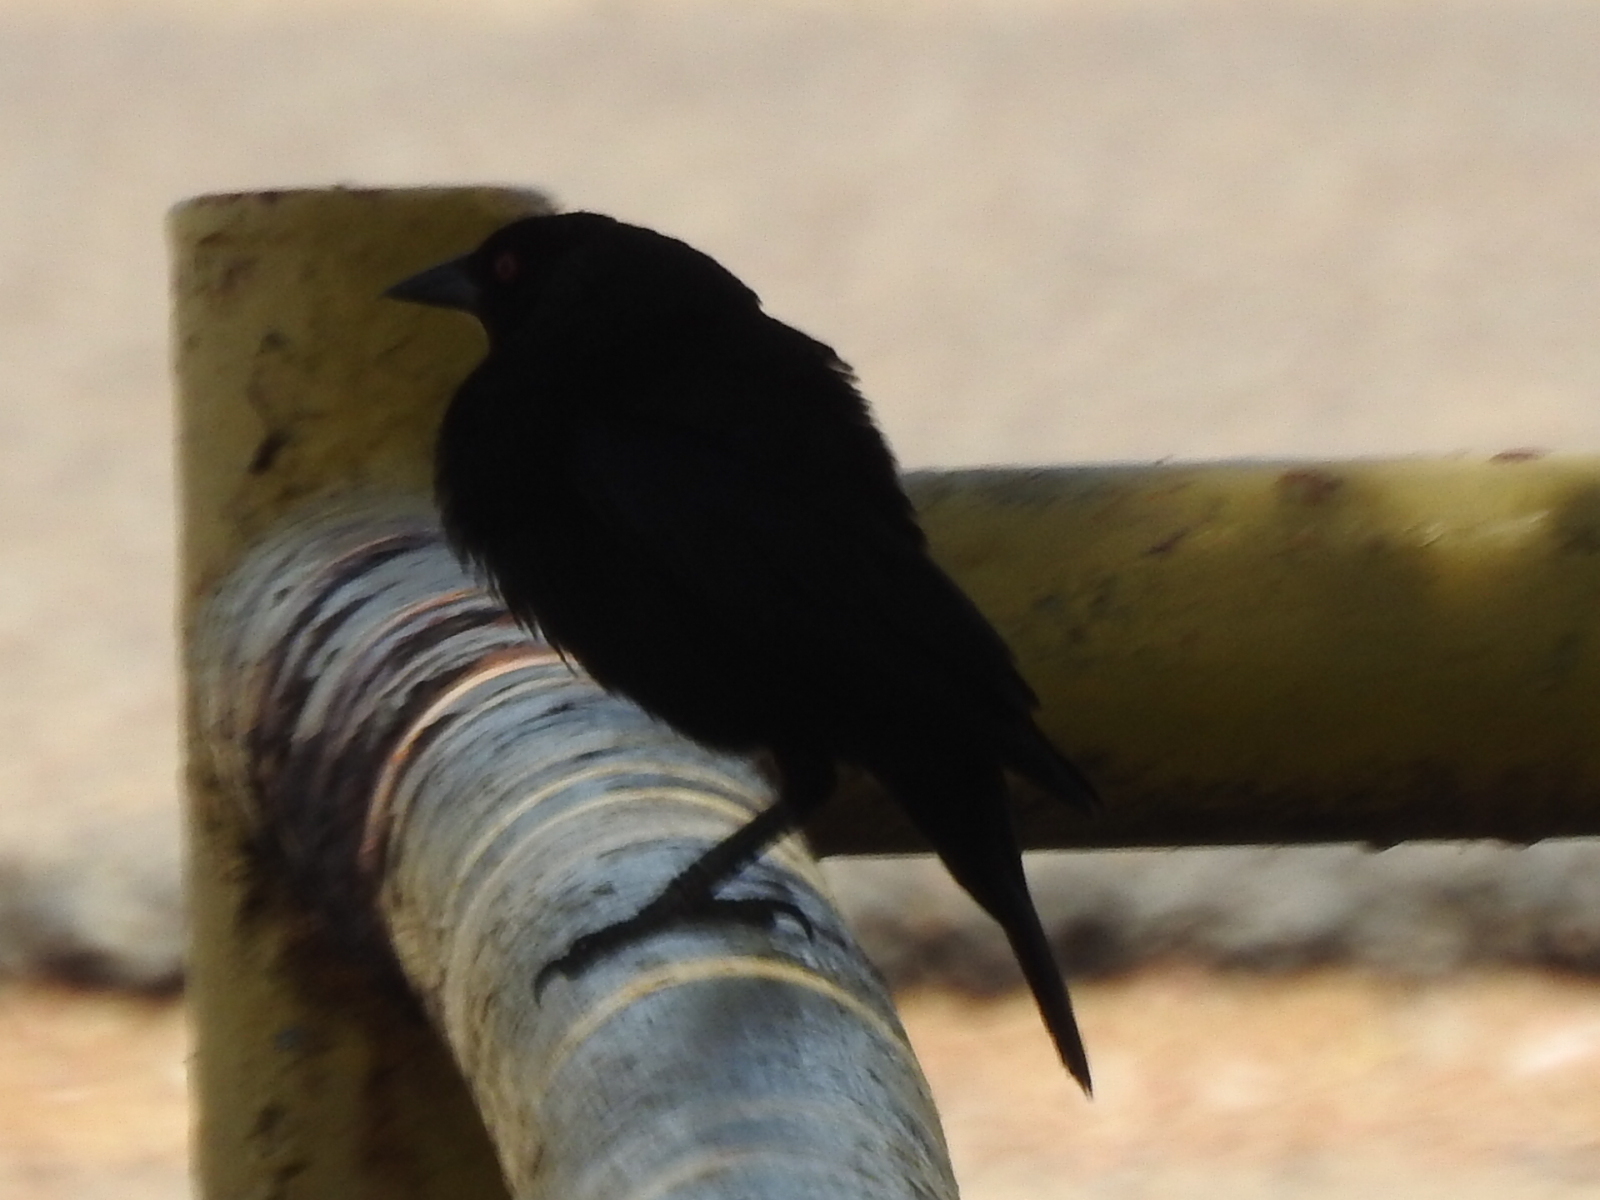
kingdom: Animalia
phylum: Chordata
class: Aves
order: Passeriformes
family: Icteridae
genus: Molothrus
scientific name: Molothrus aeneus
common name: Bronzed cowbird
